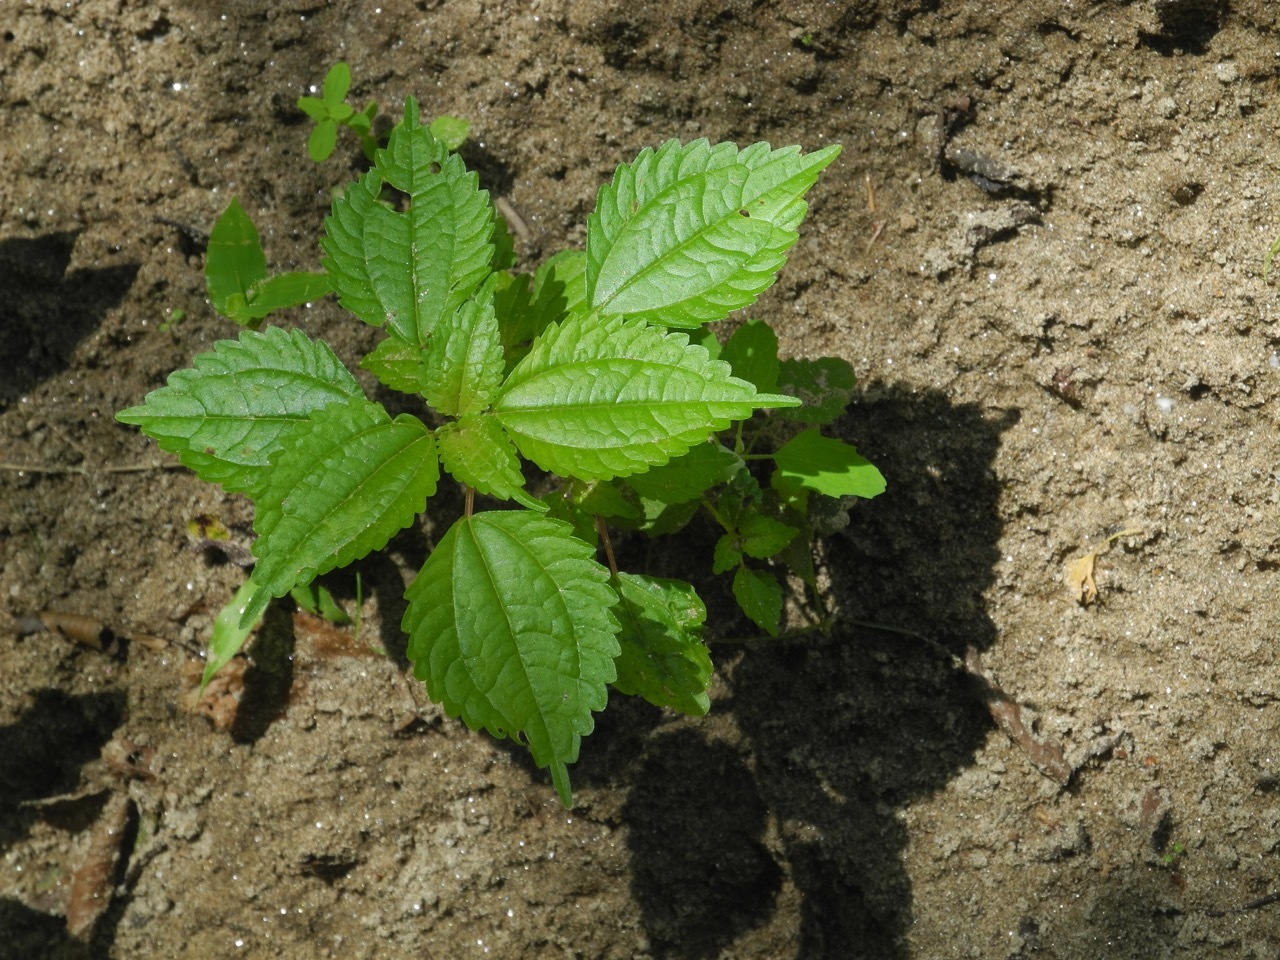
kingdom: Plantae
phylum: Tracheophyta
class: Magnoliopsida
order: Rosales
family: Urticaceae
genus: Pilea
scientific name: Pilea pumila
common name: Clearweed
